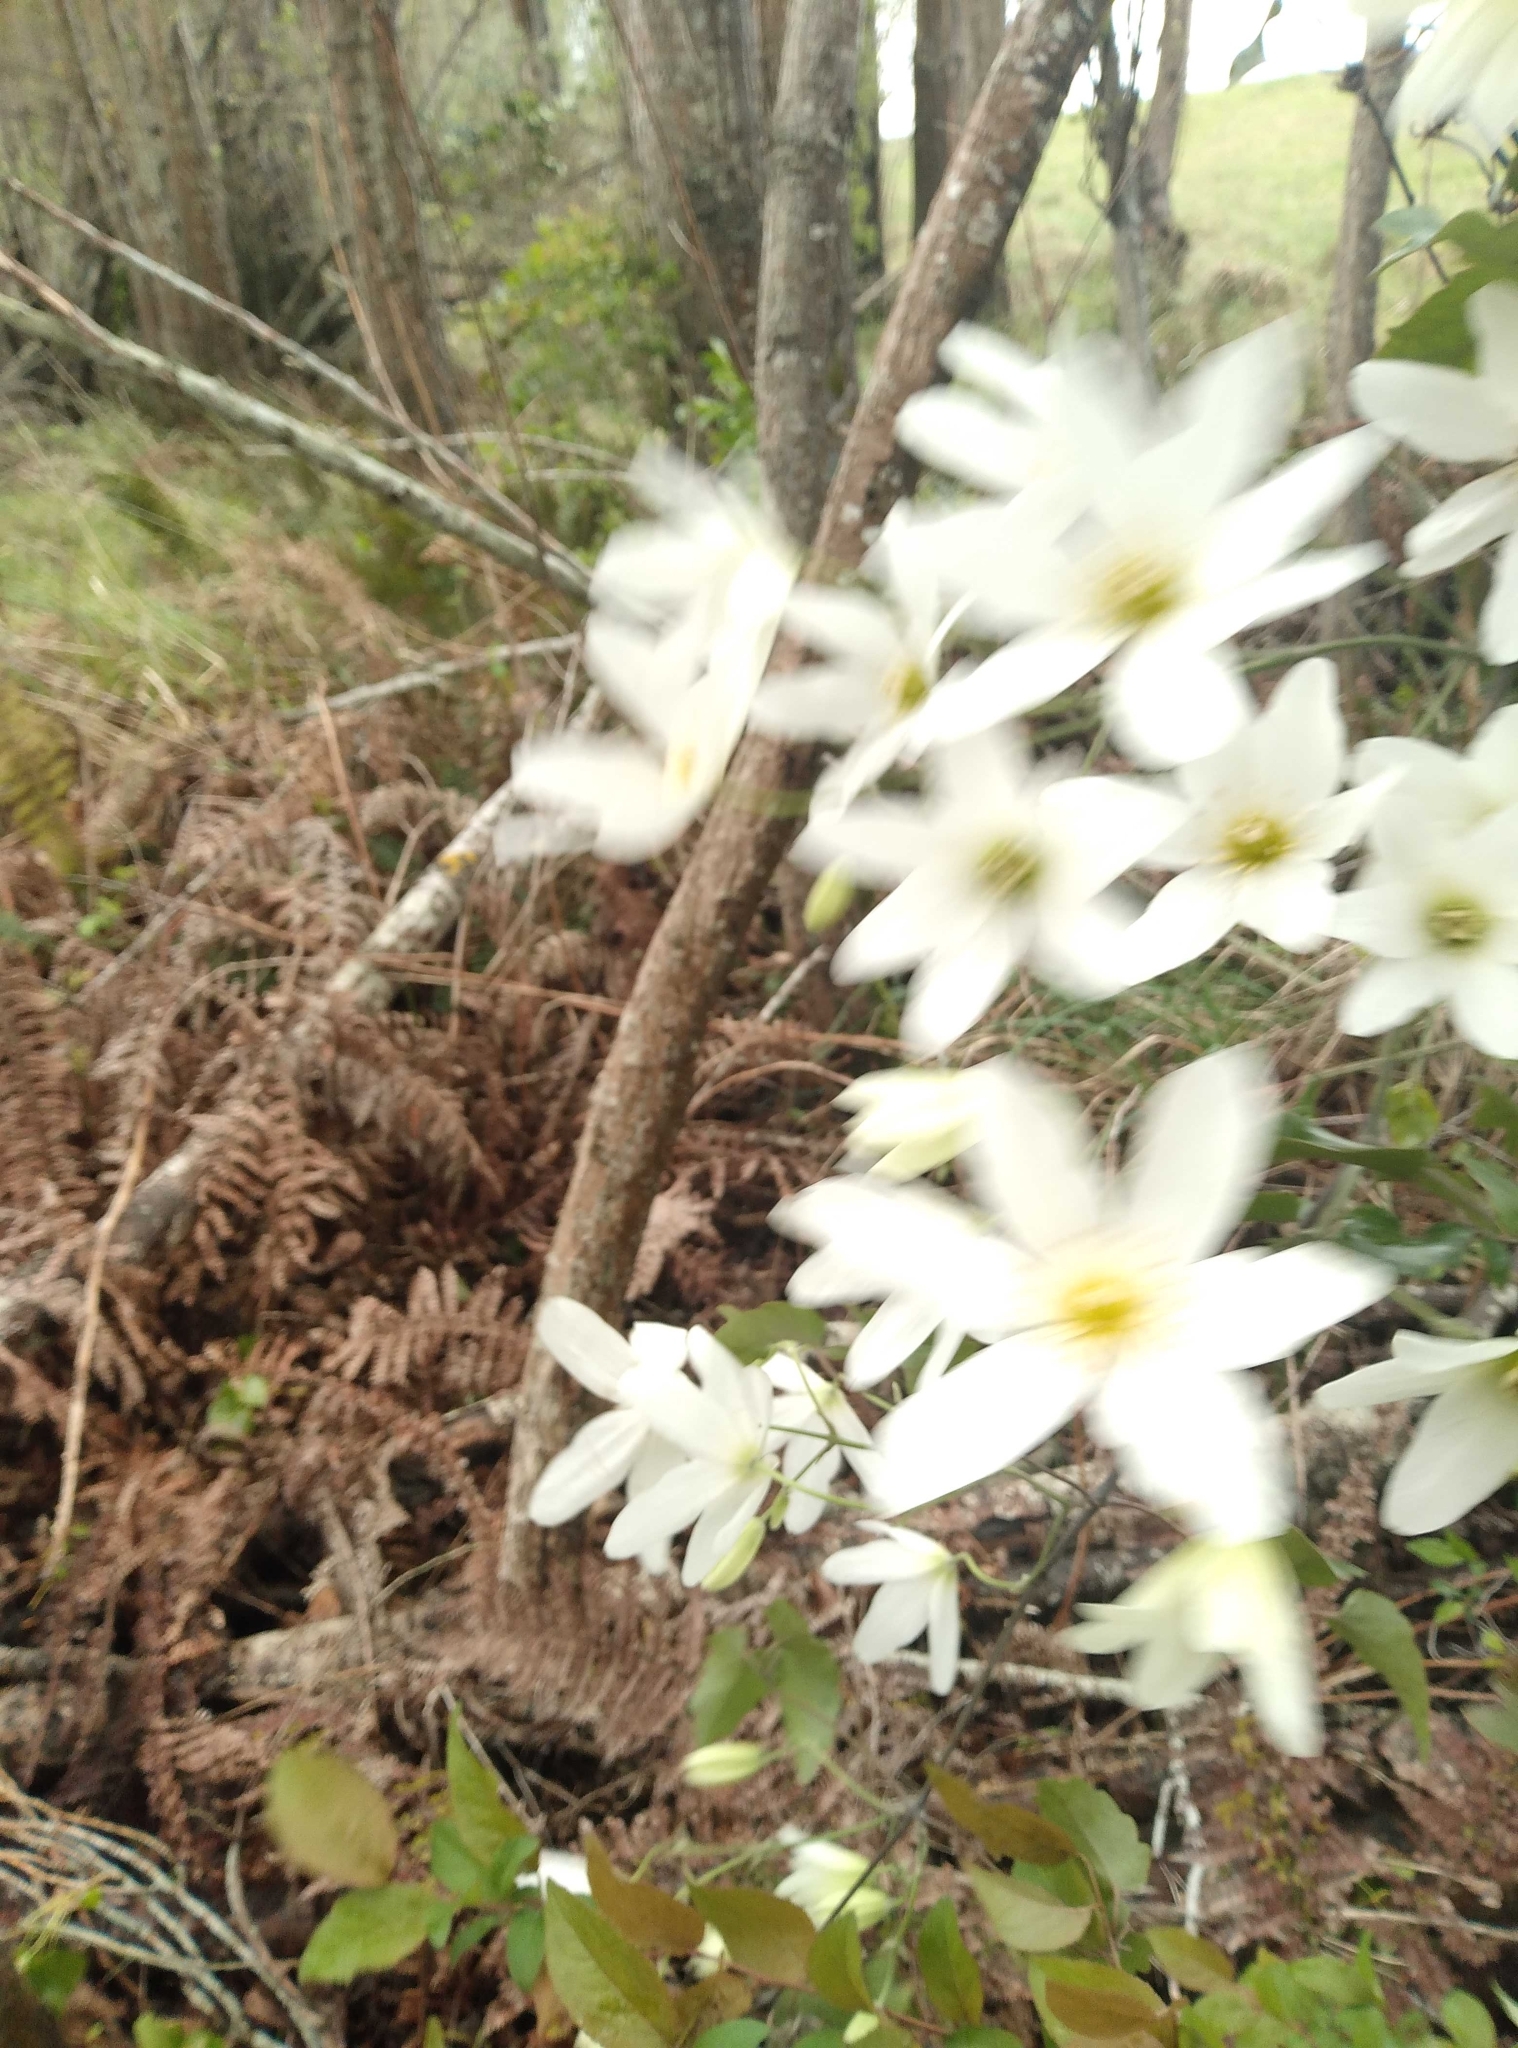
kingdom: Plantae
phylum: Tracheophyta
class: Magnoliopsida
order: Ranunculales
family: Ranunculaceae
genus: Clematis
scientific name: Clematis paniculata
